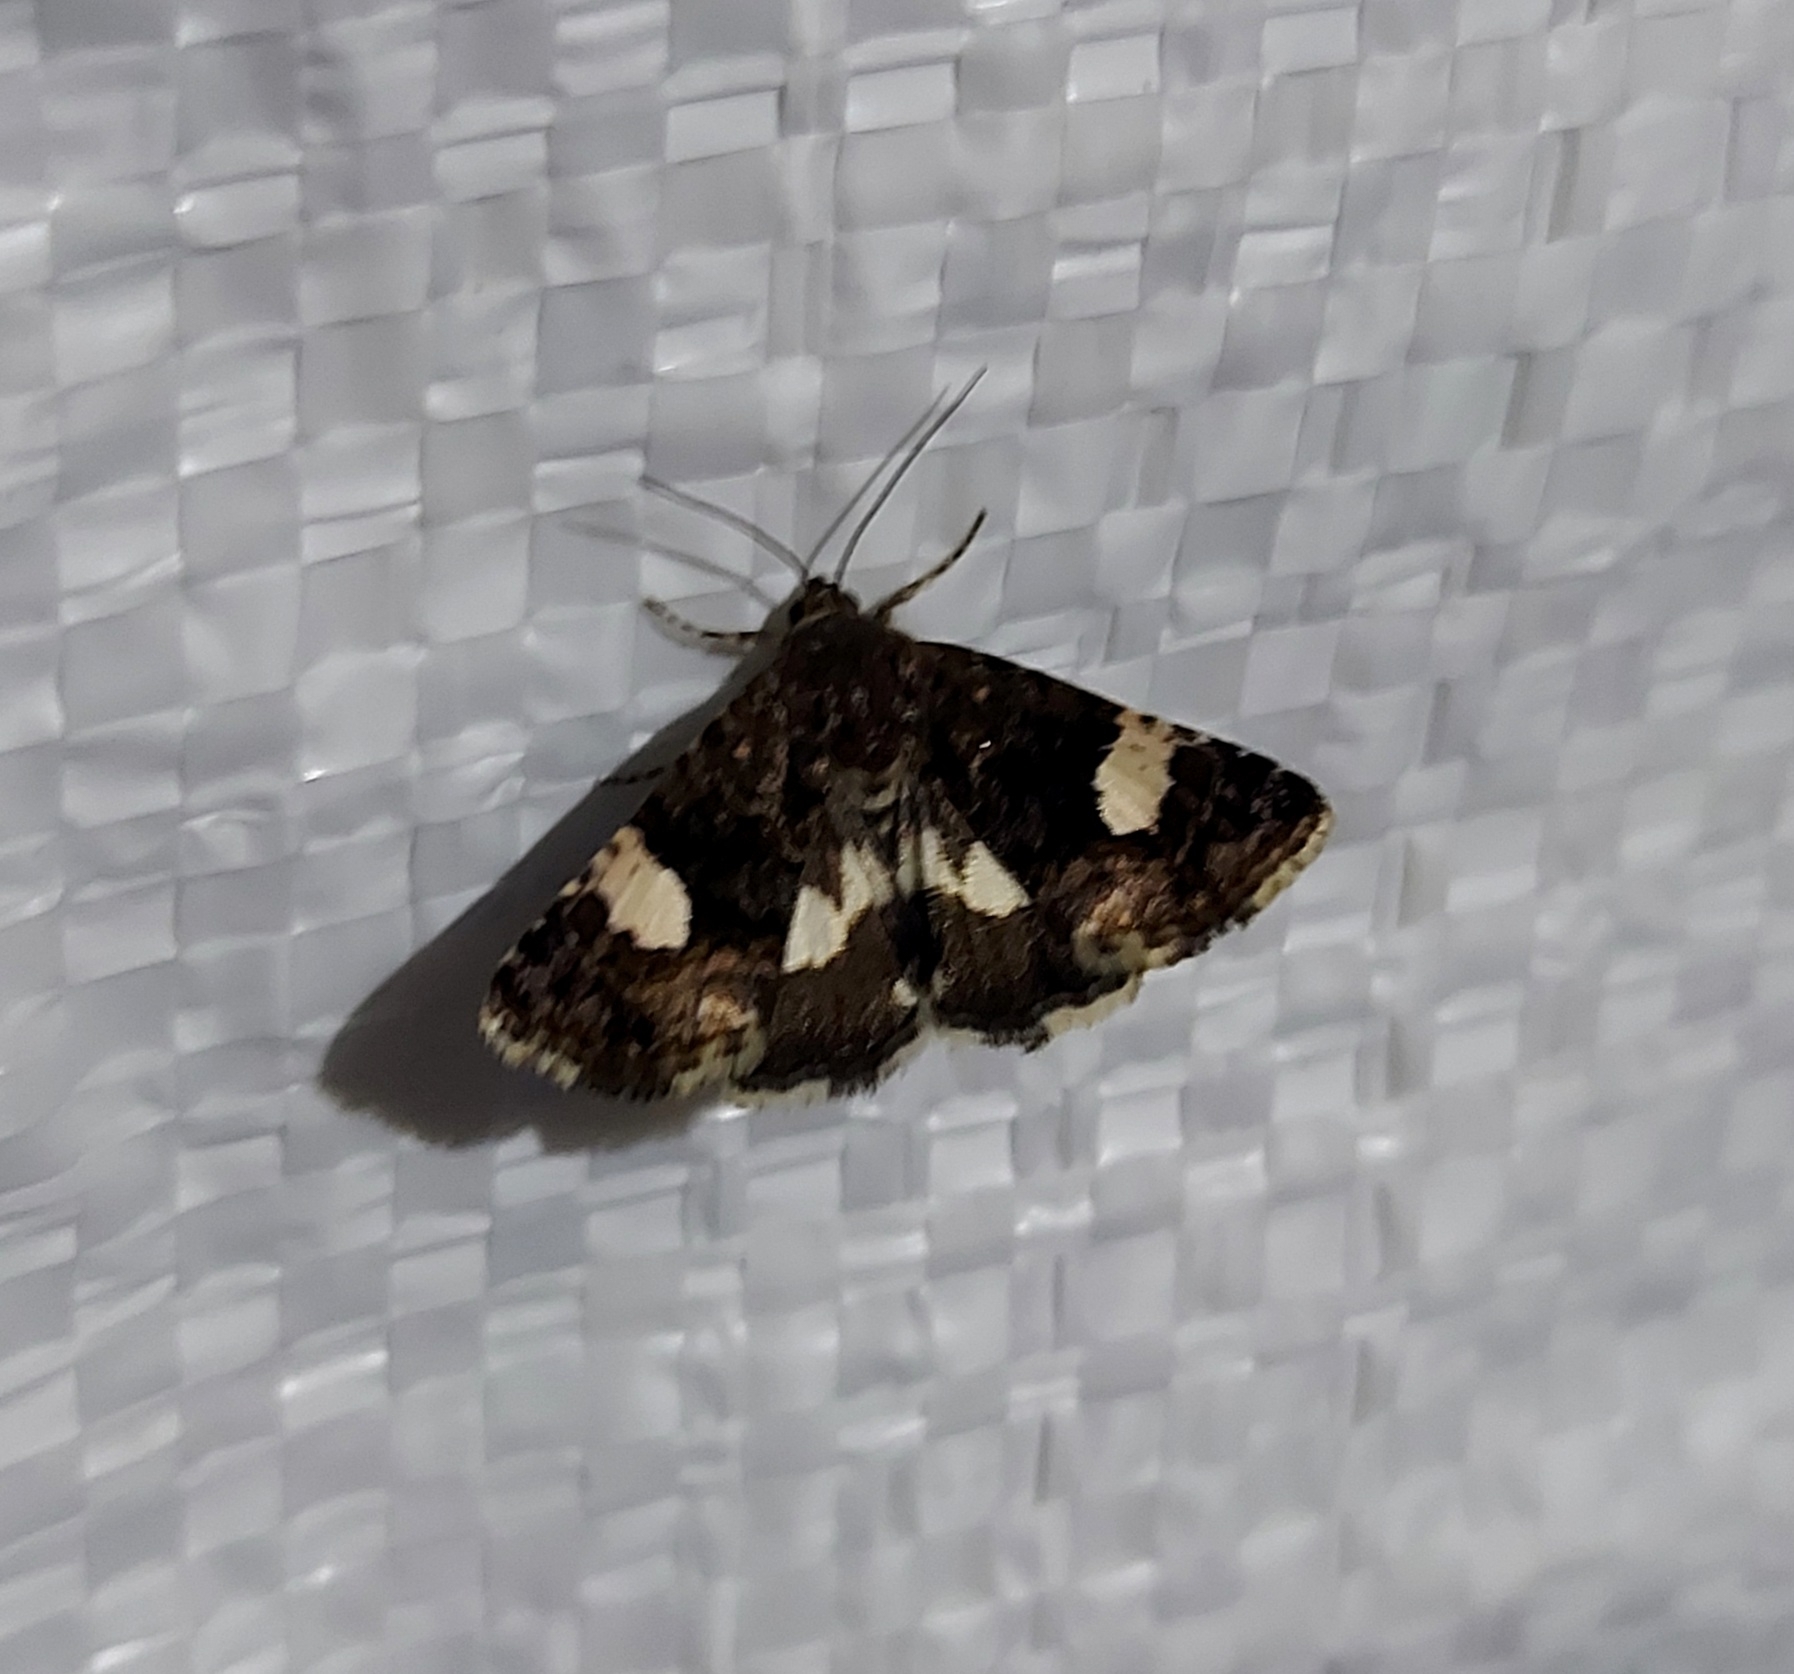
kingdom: Animalia
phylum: Arthropoda
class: Insecta
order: Lepidoptera
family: Erebidae
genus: Tyta
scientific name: Tyta luctuosa
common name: Four-spotted
